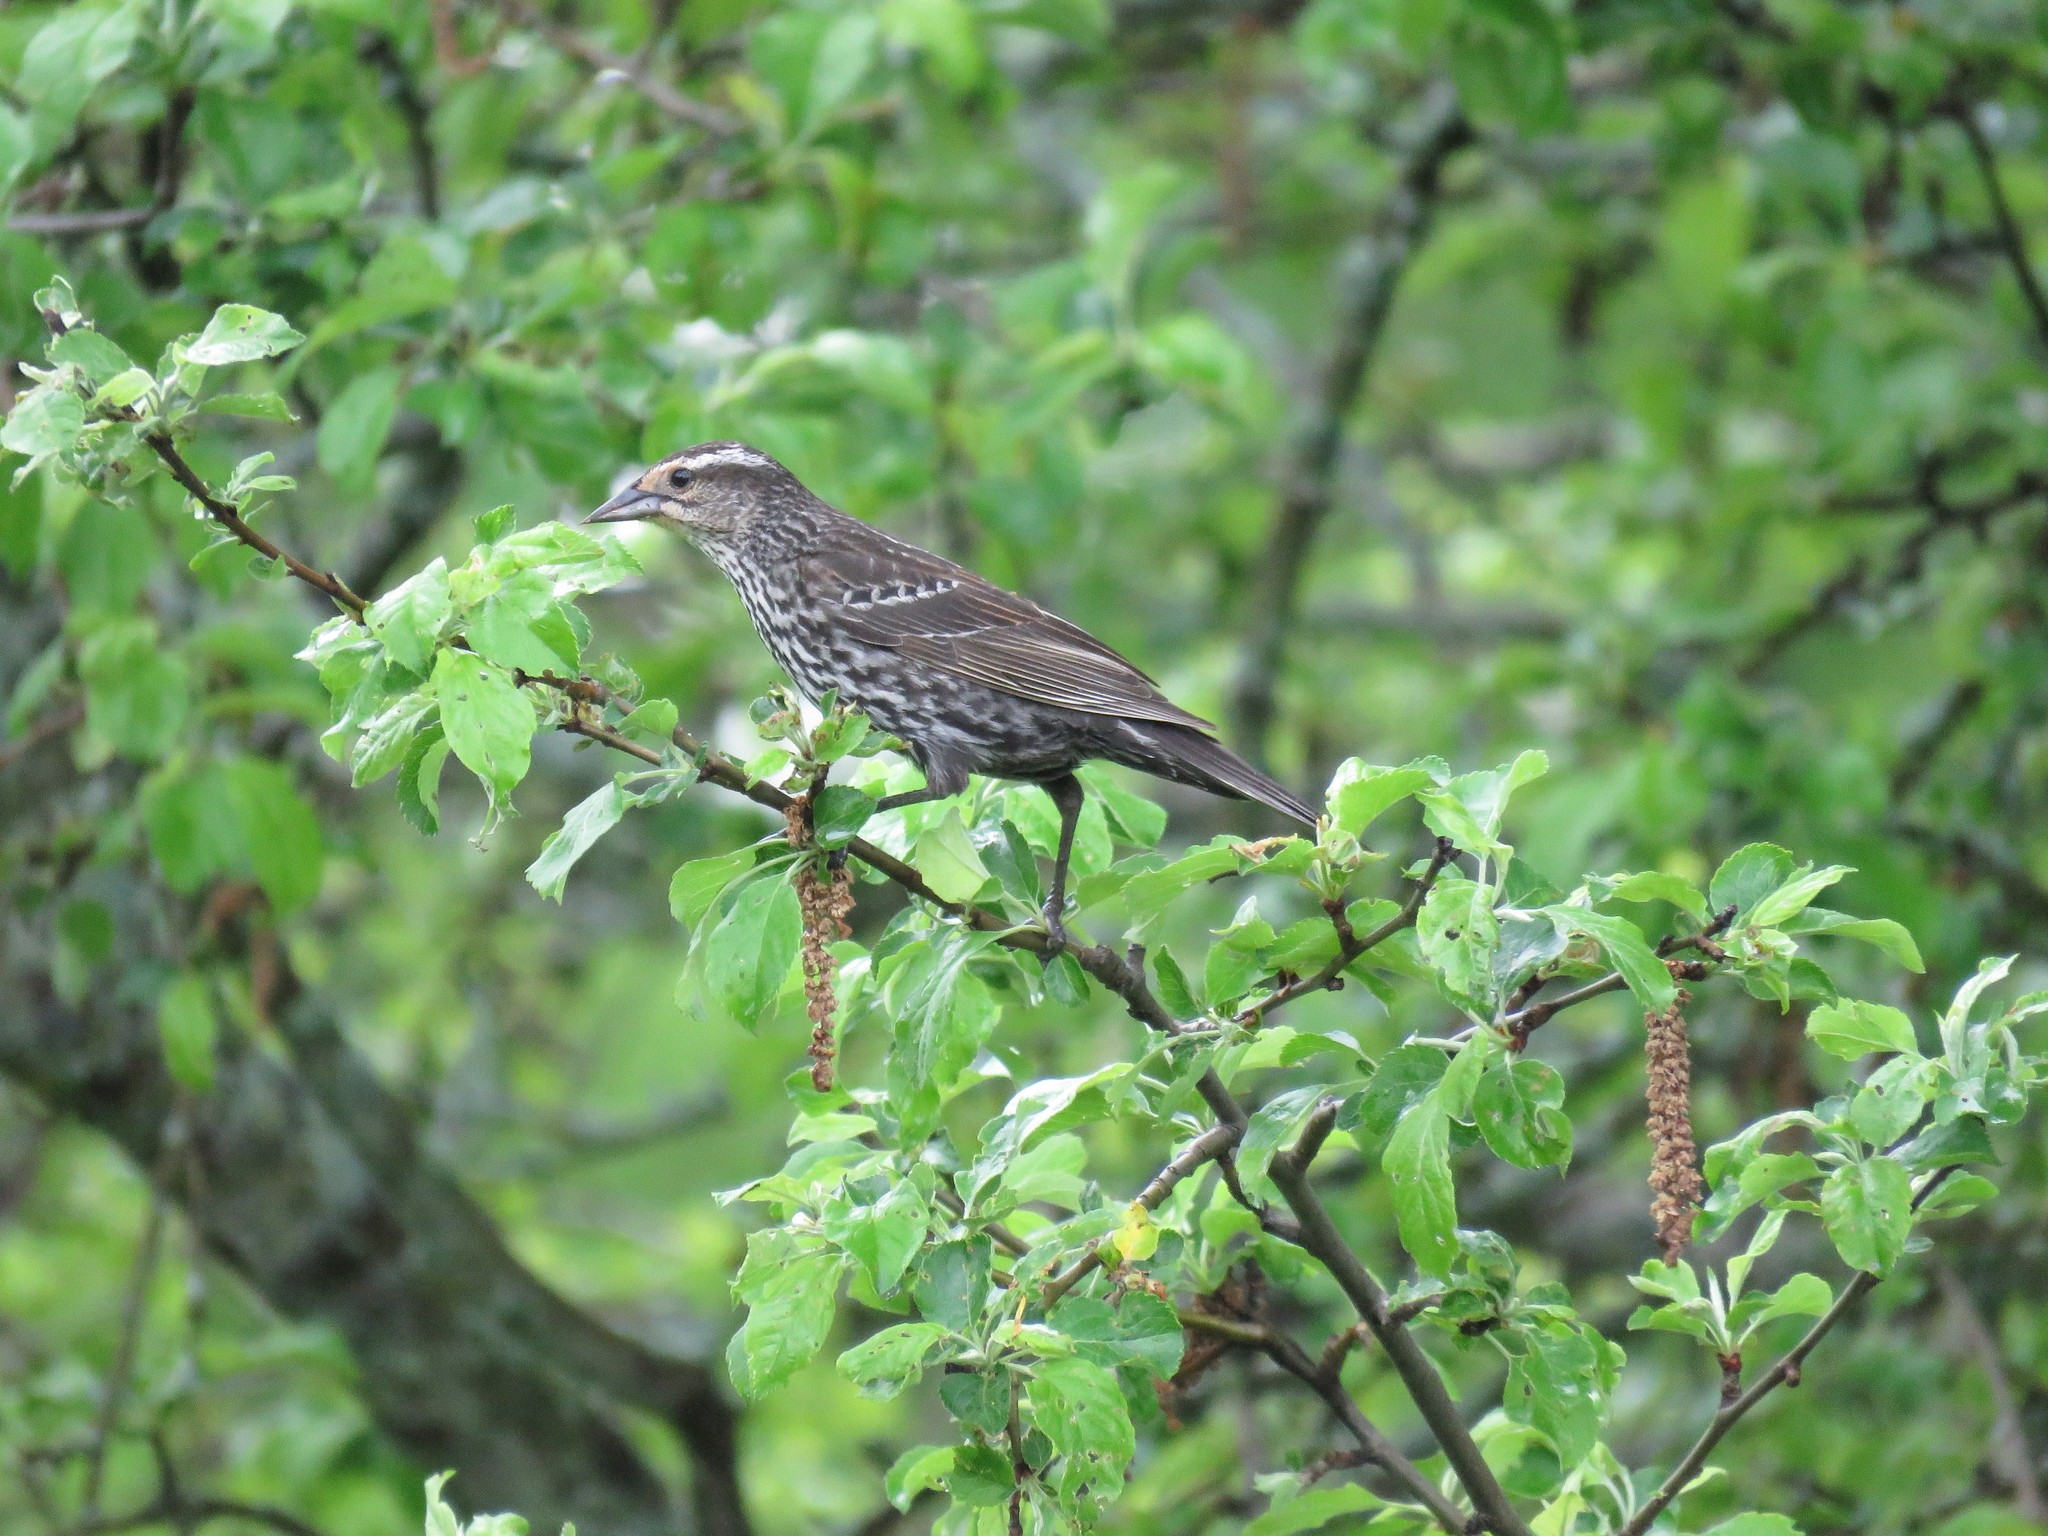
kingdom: Animalia
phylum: Chordata
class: Aves
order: Passeriformes
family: Icteridae
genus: Agelaius
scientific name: Agelaius phoeniceus
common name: Red-winged blackbird
